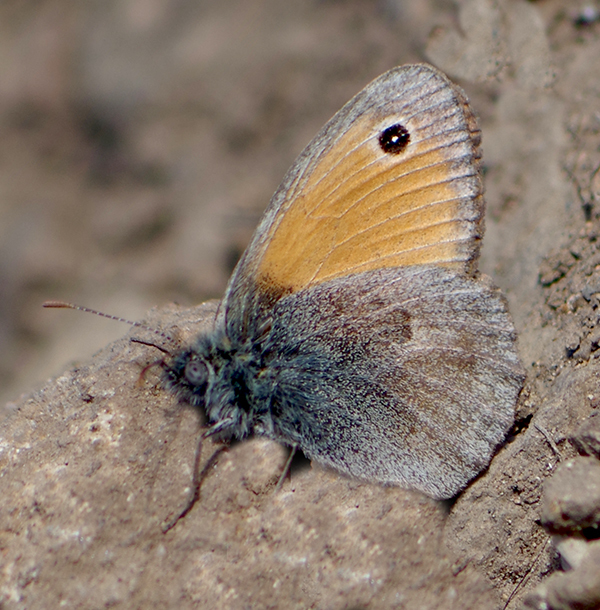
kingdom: Animalia
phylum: Arthropoda
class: Insecta
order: Lepidoptera
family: Nymphalidae
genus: Coenonympha
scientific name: Coenonympha pamphilus
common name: Small heath
